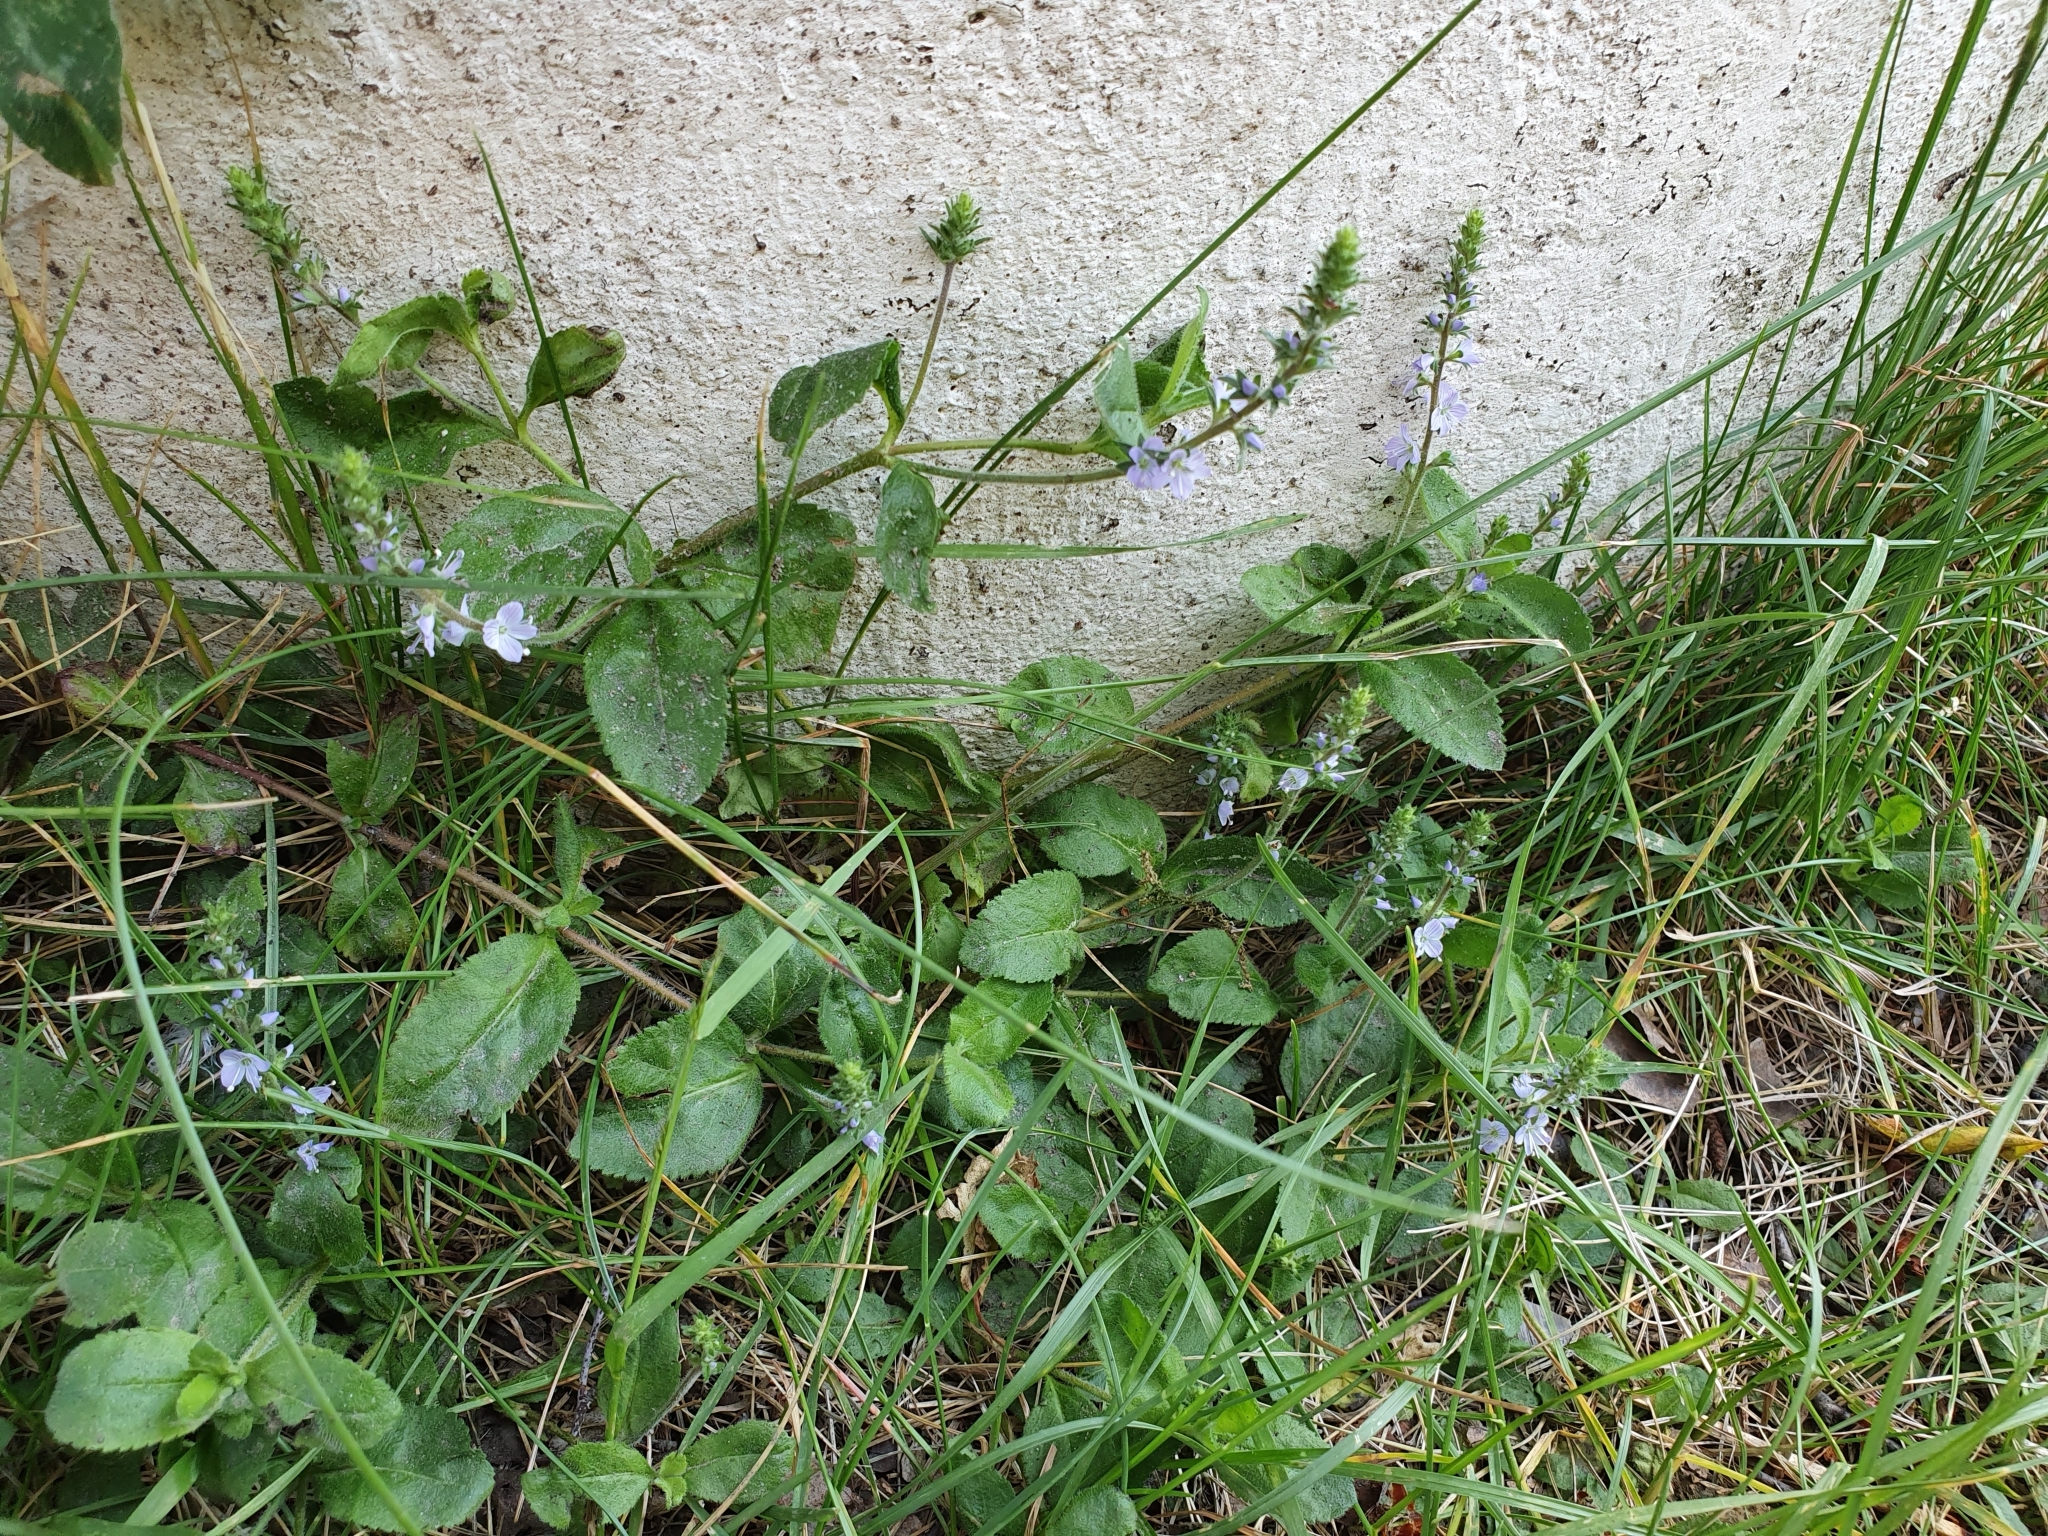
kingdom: Plantae
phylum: Tracheophyta
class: Magnoliopsida
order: Lamiales
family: Plantaginaceae
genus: Veronica
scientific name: Veronica officinalis
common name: Common speedwell
